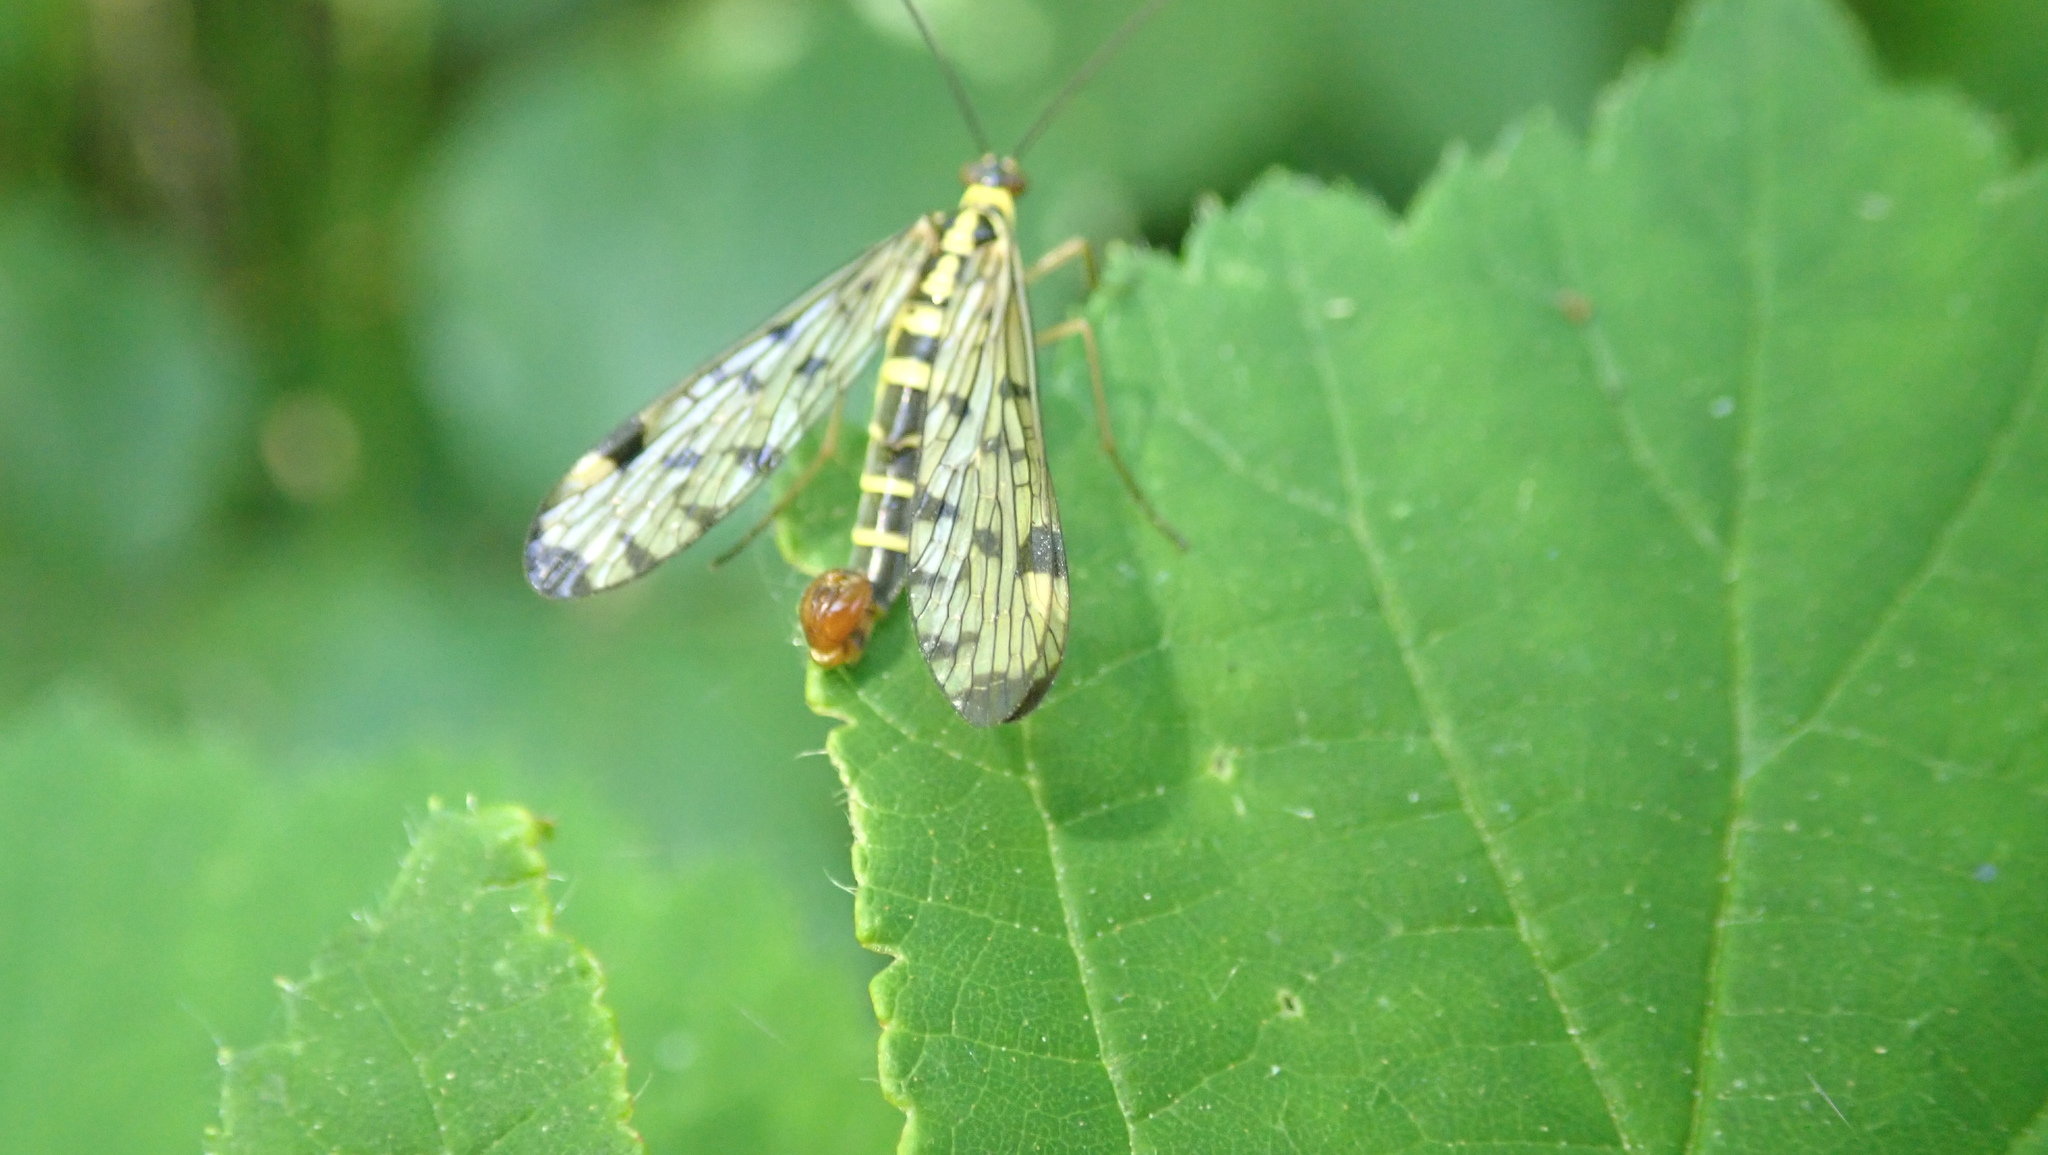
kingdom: Animalia
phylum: Arthropoda
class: Insecta
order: Mecoptera
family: Panorpidae
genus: Panorpa
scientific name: Panorpa germanica
